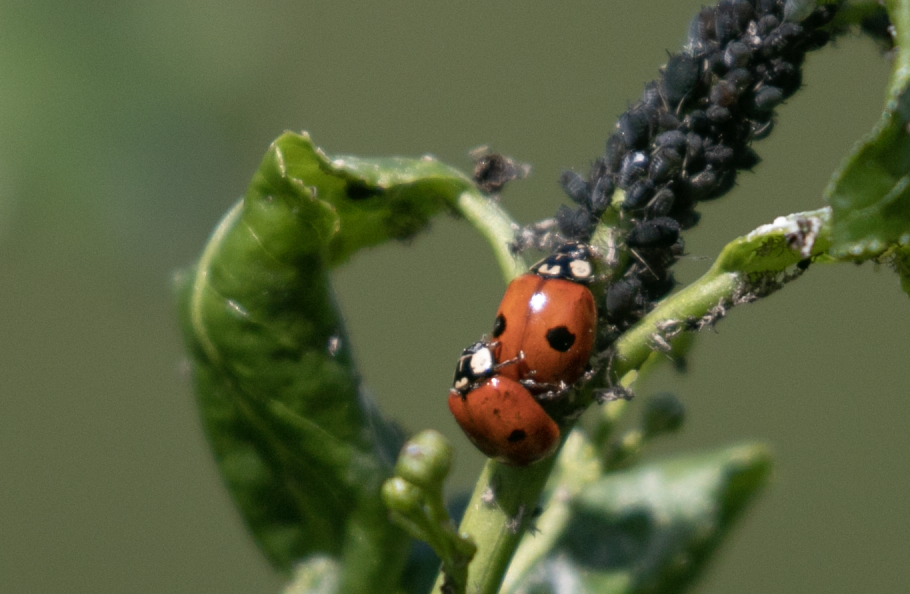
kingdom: Animalia
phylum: Arthropoda
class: Insecta
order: Coleoptera
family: Coccinellidae
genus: Adalia
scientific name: Adalia bipunctata
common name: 2-spot ladybird
